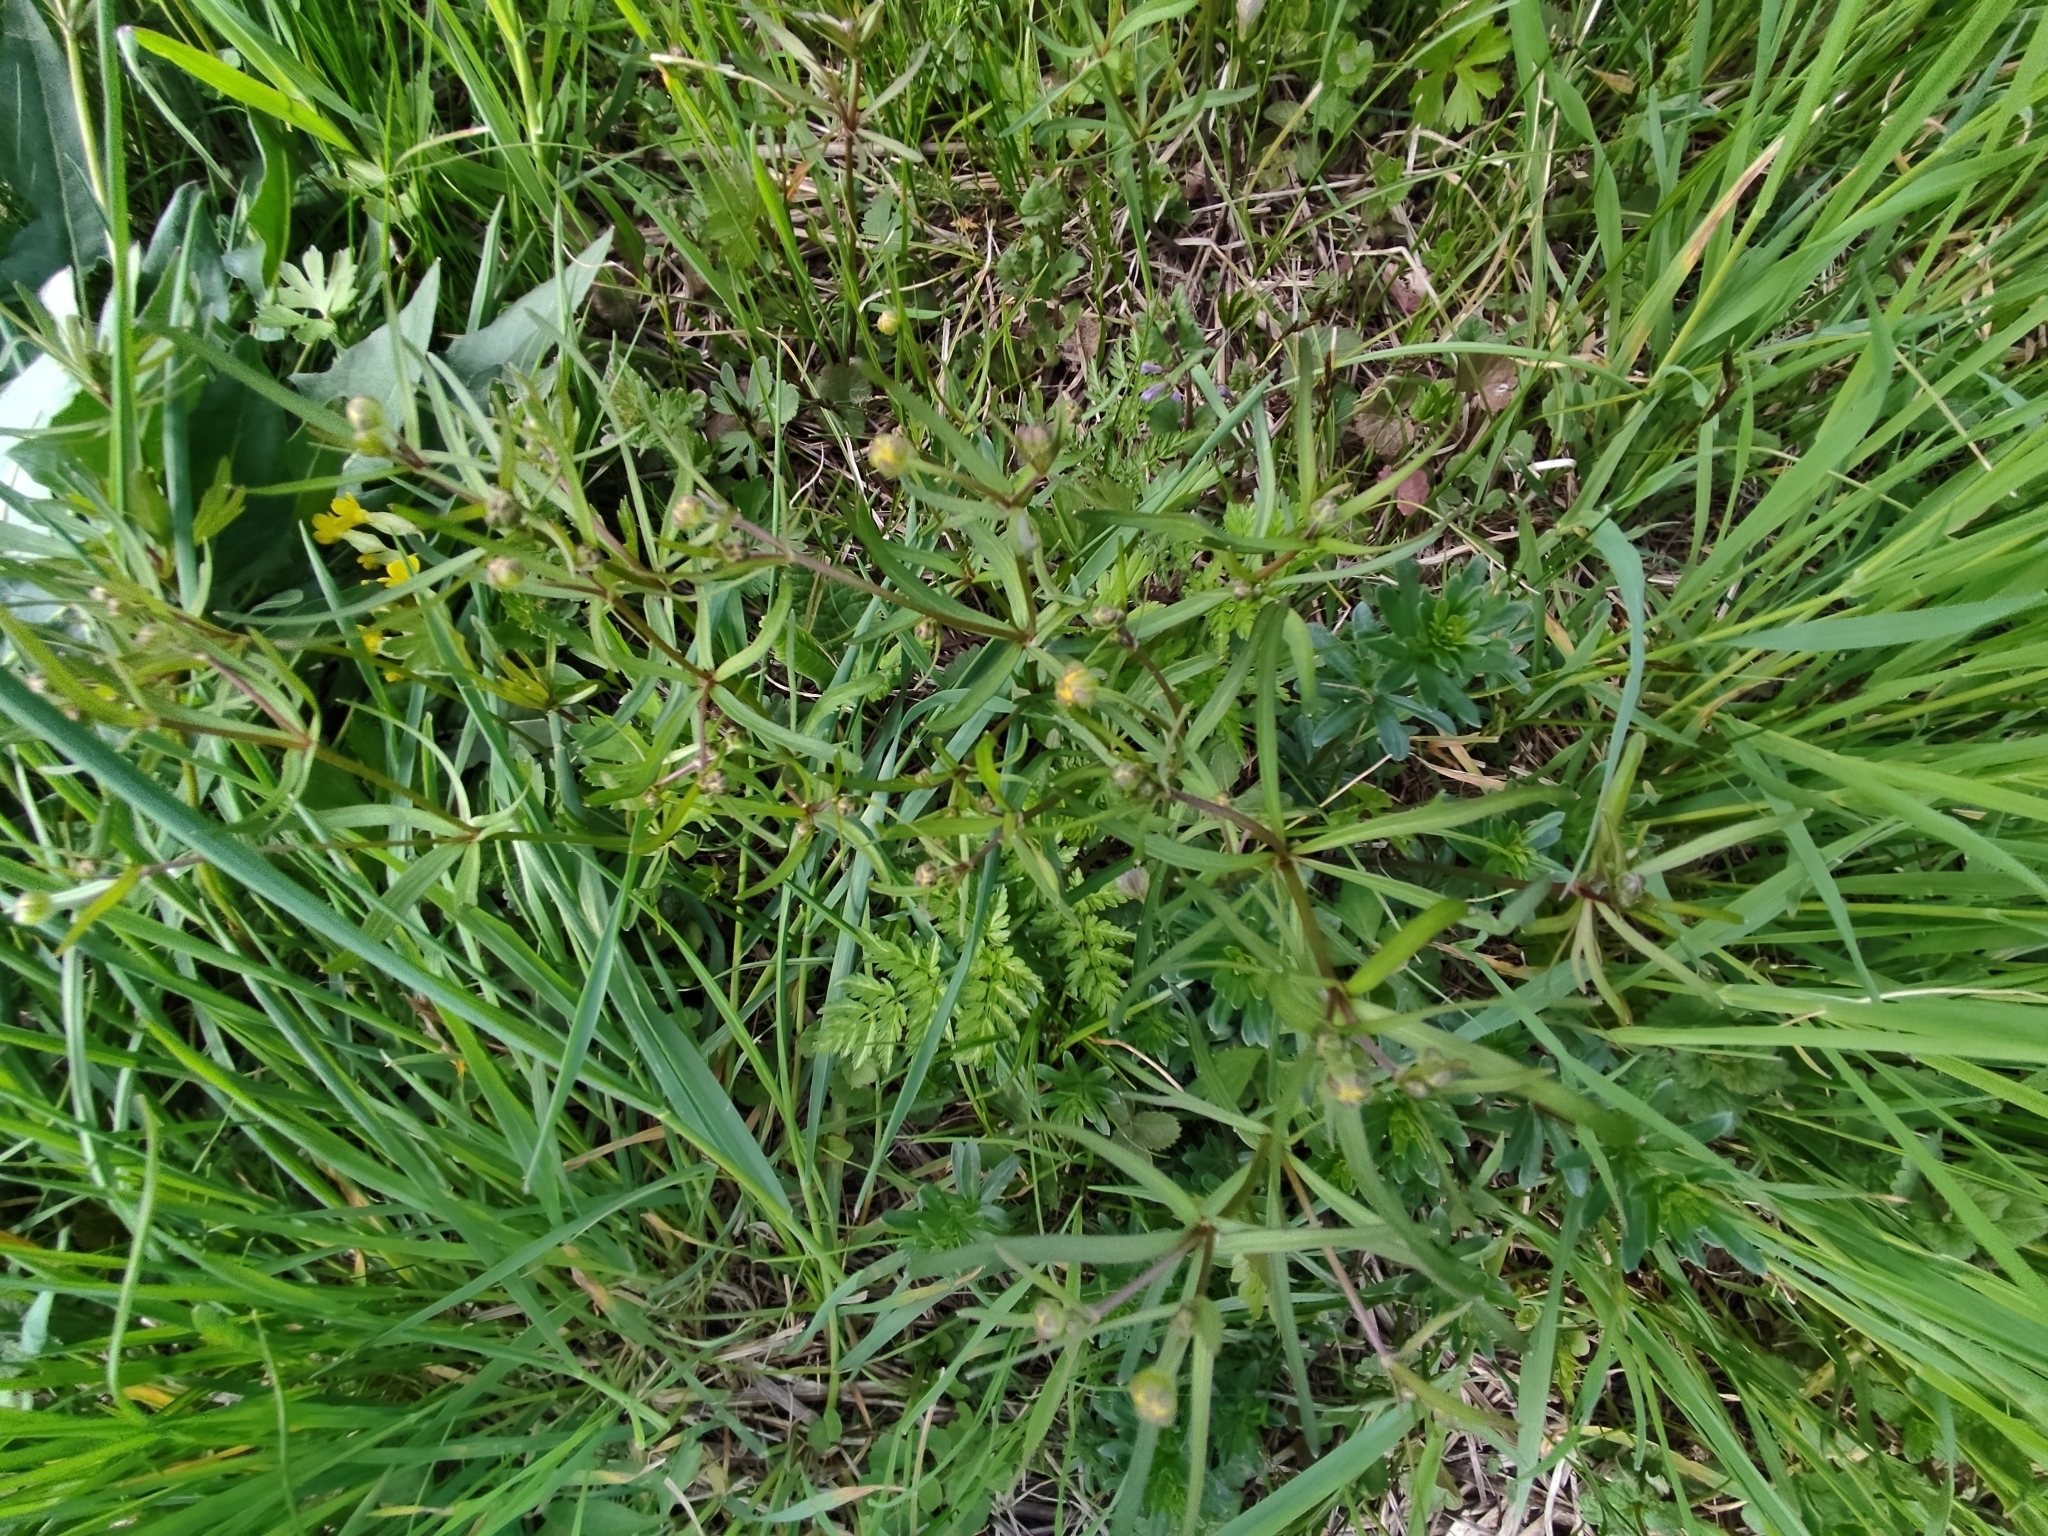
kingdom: Plantae
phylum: Tracheophyta
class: Magnoliopsida
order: Ranunculales
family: Ranunculaceae
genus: Ranunculus
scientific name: Ranunculus auricomus
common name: Goldilocks buttercup
